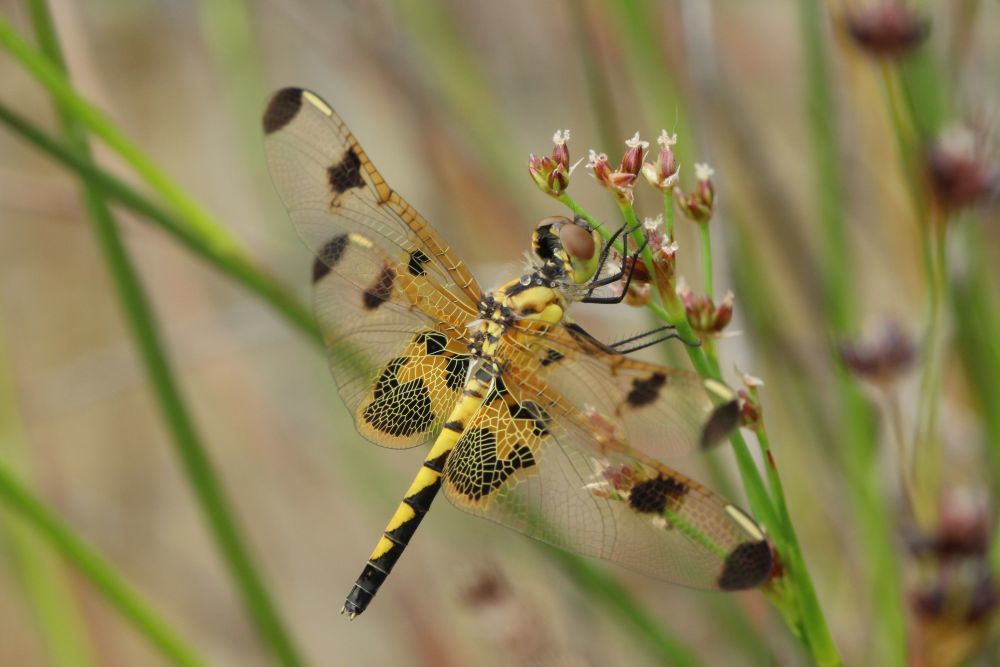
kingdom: Animalia
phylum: Arthropoda
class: Insecta
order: Odonata
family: Libellulidae
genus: Celithemis
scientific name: Celithemis elisa
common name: Calico pennant
